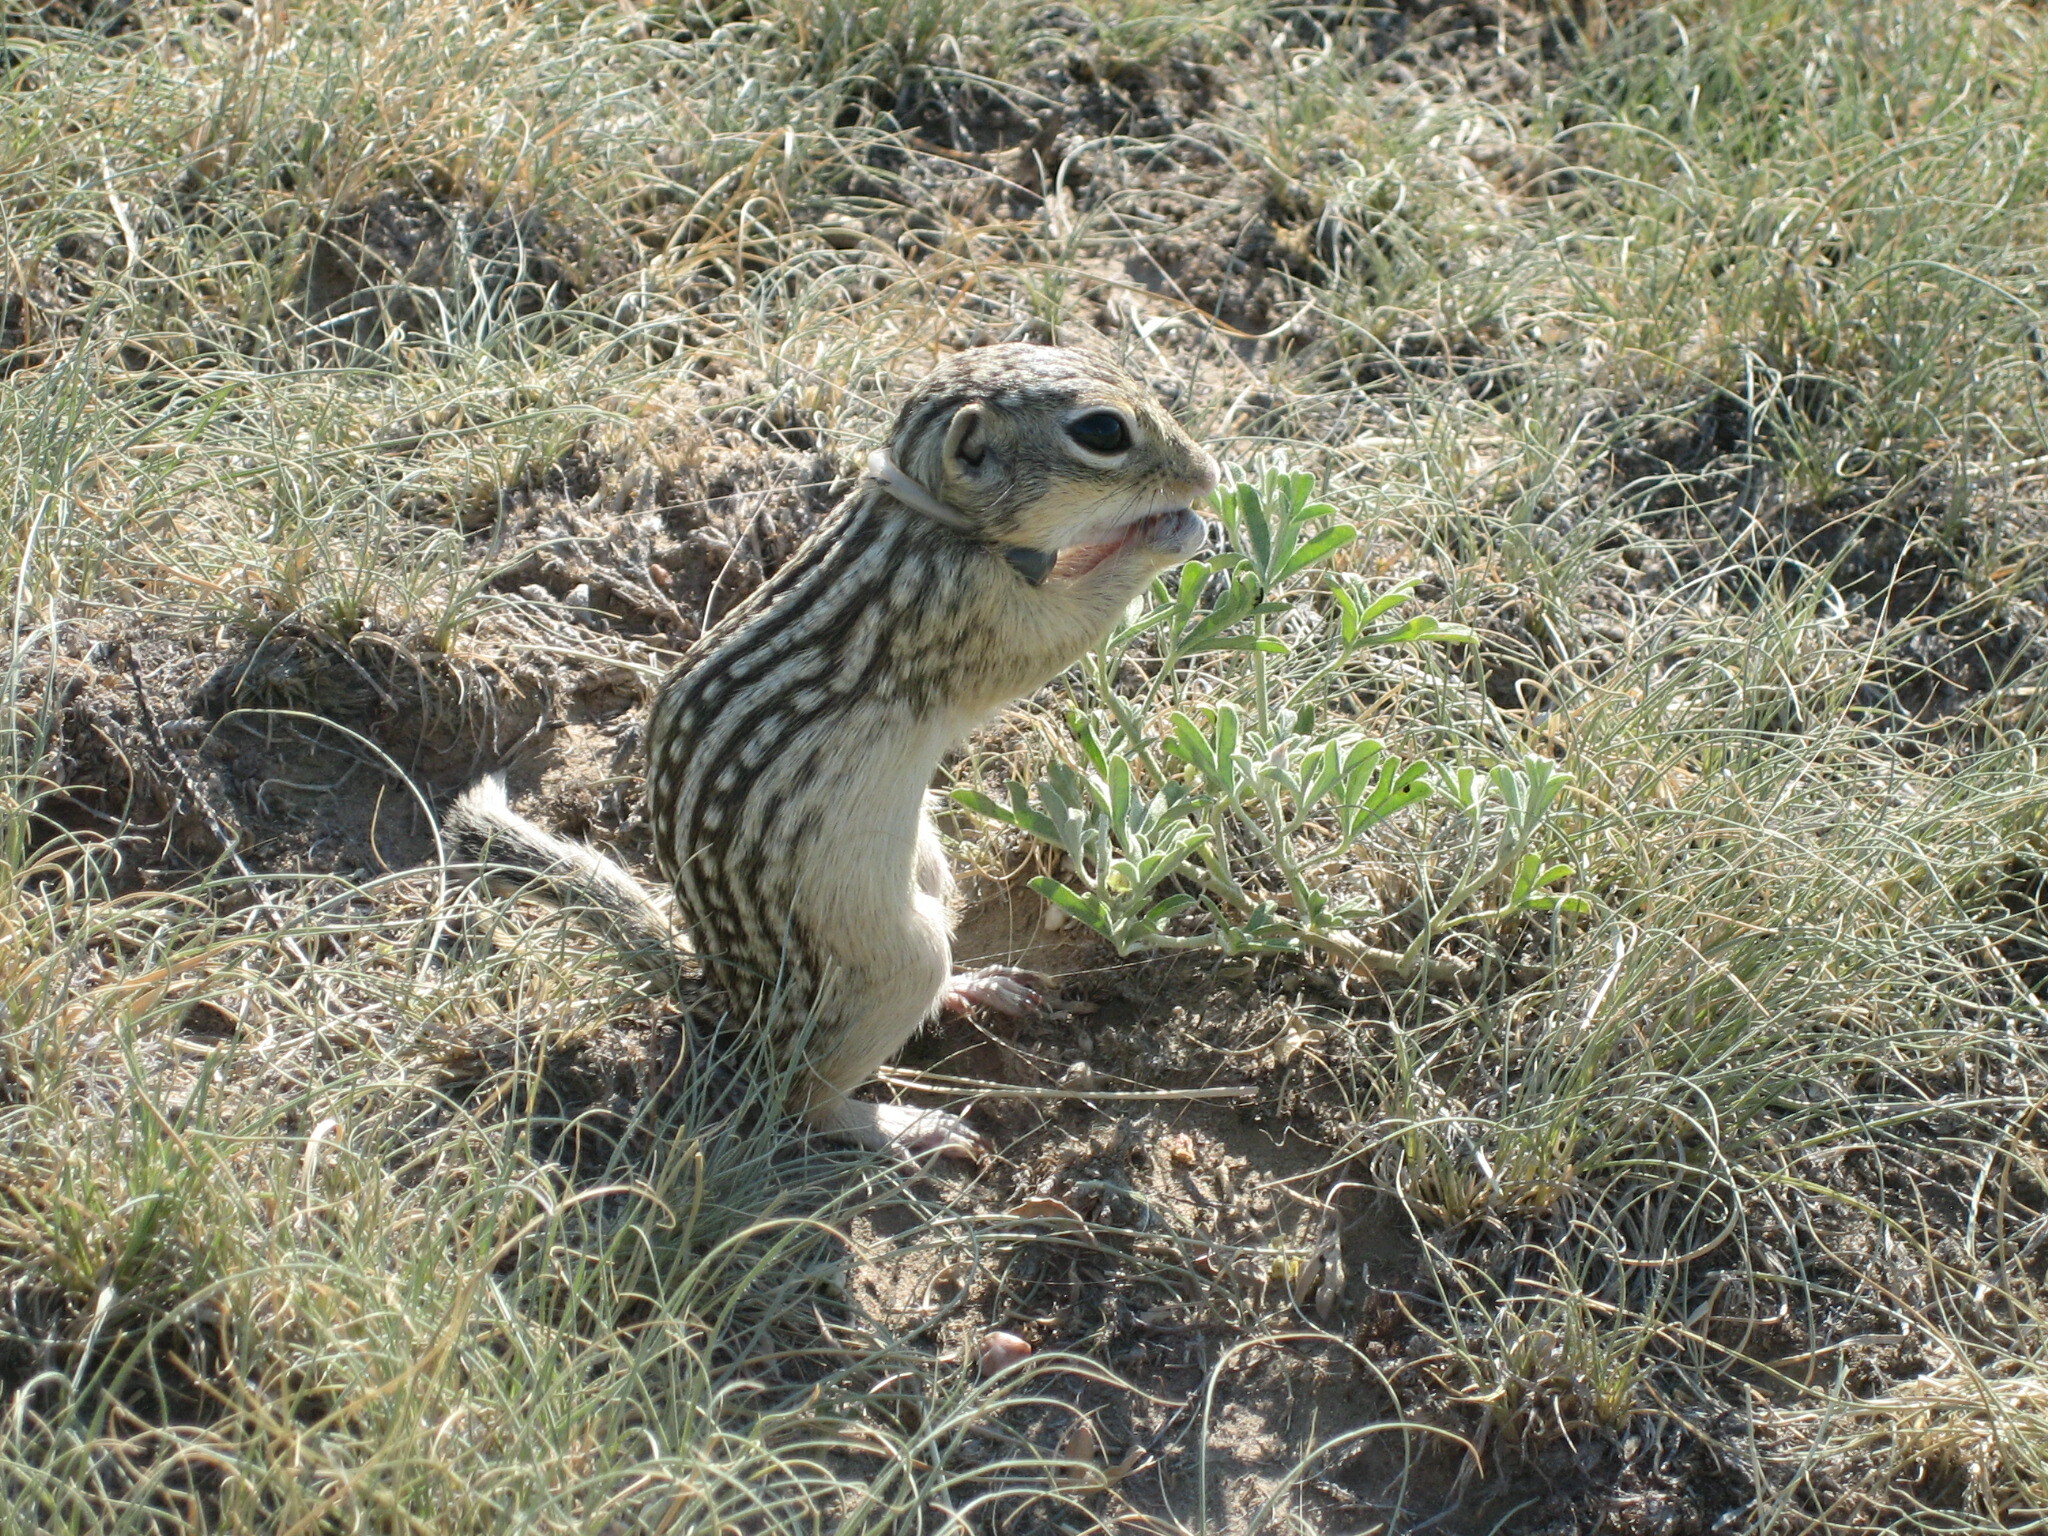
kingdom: Animalia
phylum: Chordata
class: Mammalia
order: Rodentia
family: Sciuridae
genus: Ictidomys
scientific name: Ictidomys tridecemlineatus
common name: Thirteen-lined ground squirrel
